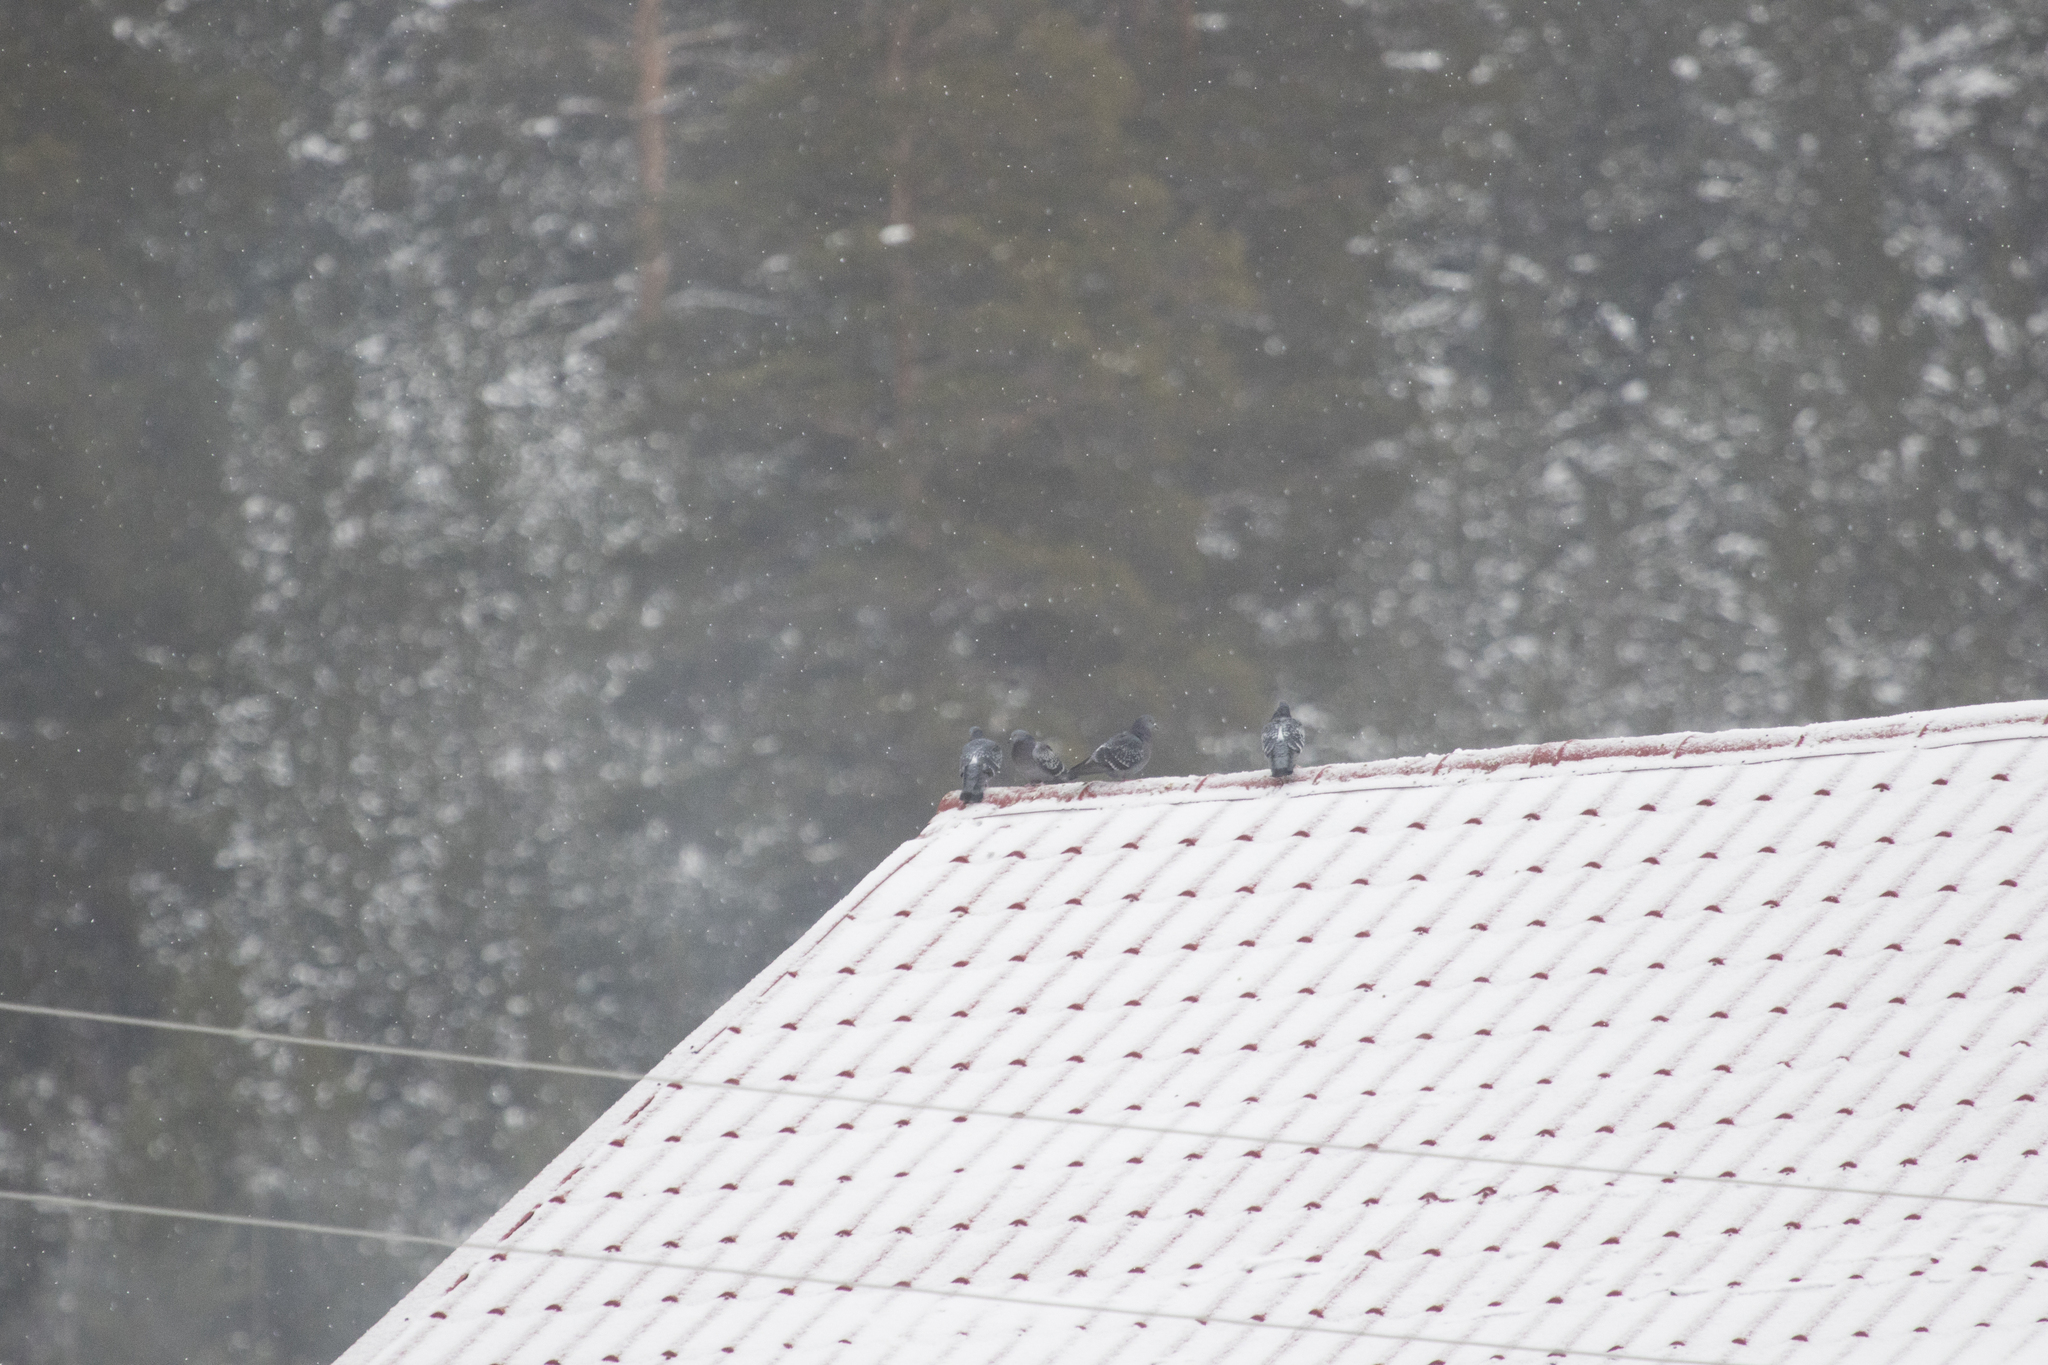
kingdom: Animalia
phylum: Chordata
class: Aves
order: Columbiformes
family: Columbidae
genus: Columba
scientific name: Columba livia
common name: Rock pigeon
